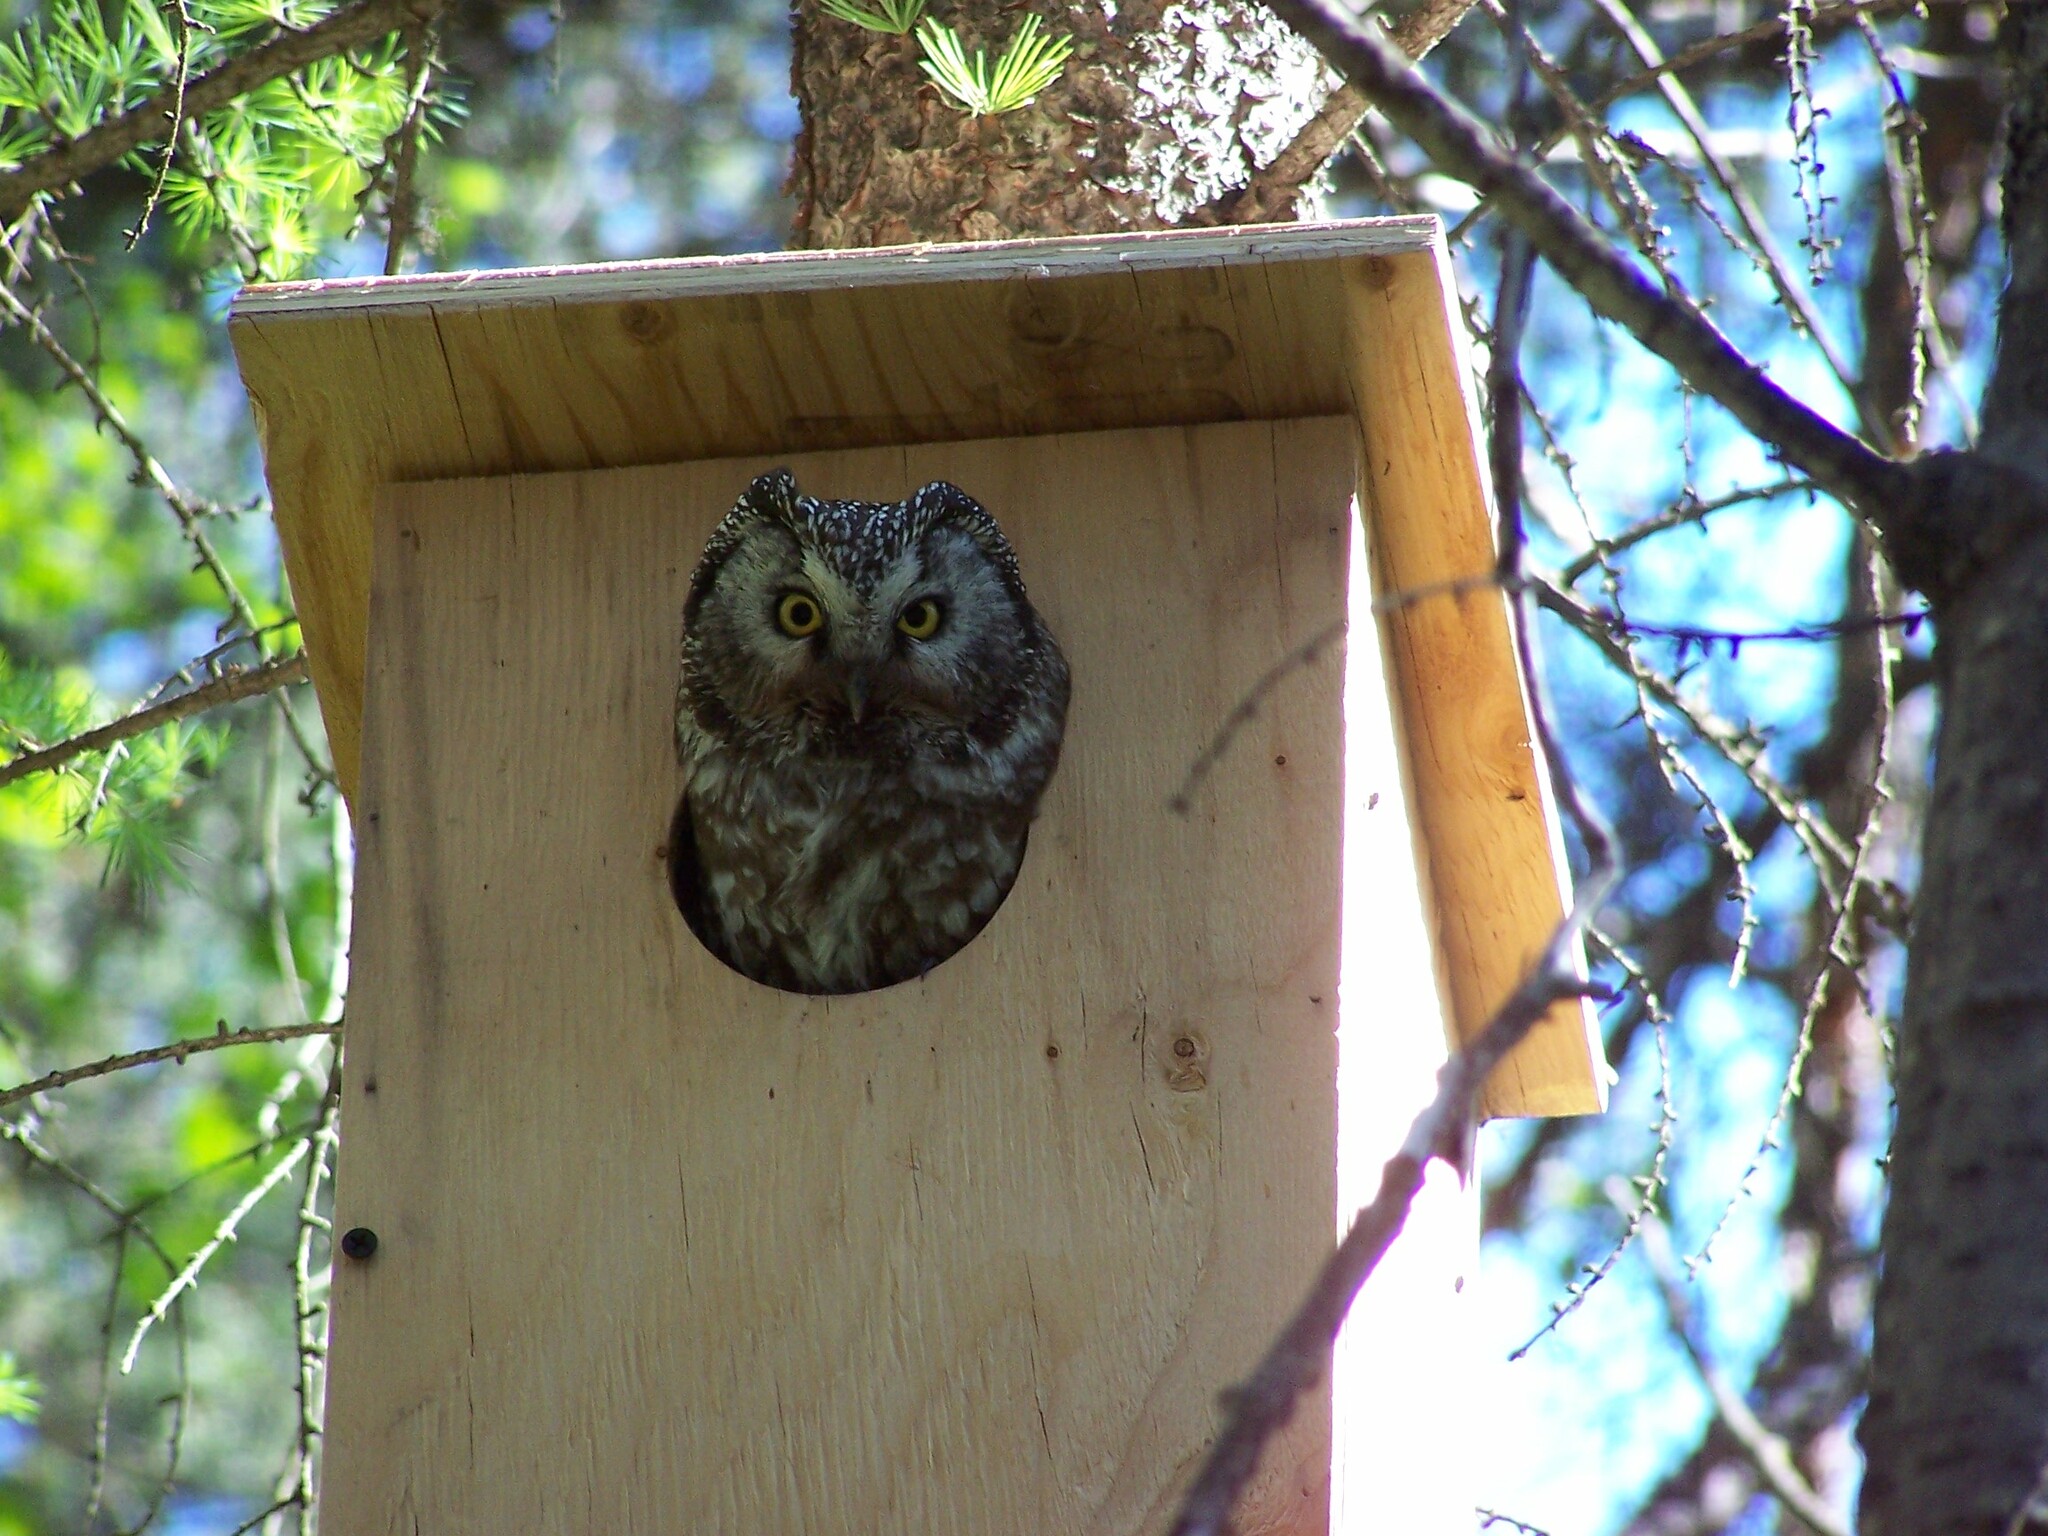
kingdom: Animalia
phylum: Chordata
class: Aves
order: Strigiformes
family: Strigidae
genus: Aegolius
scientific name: Aegolius funereus
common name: Boreal owl
